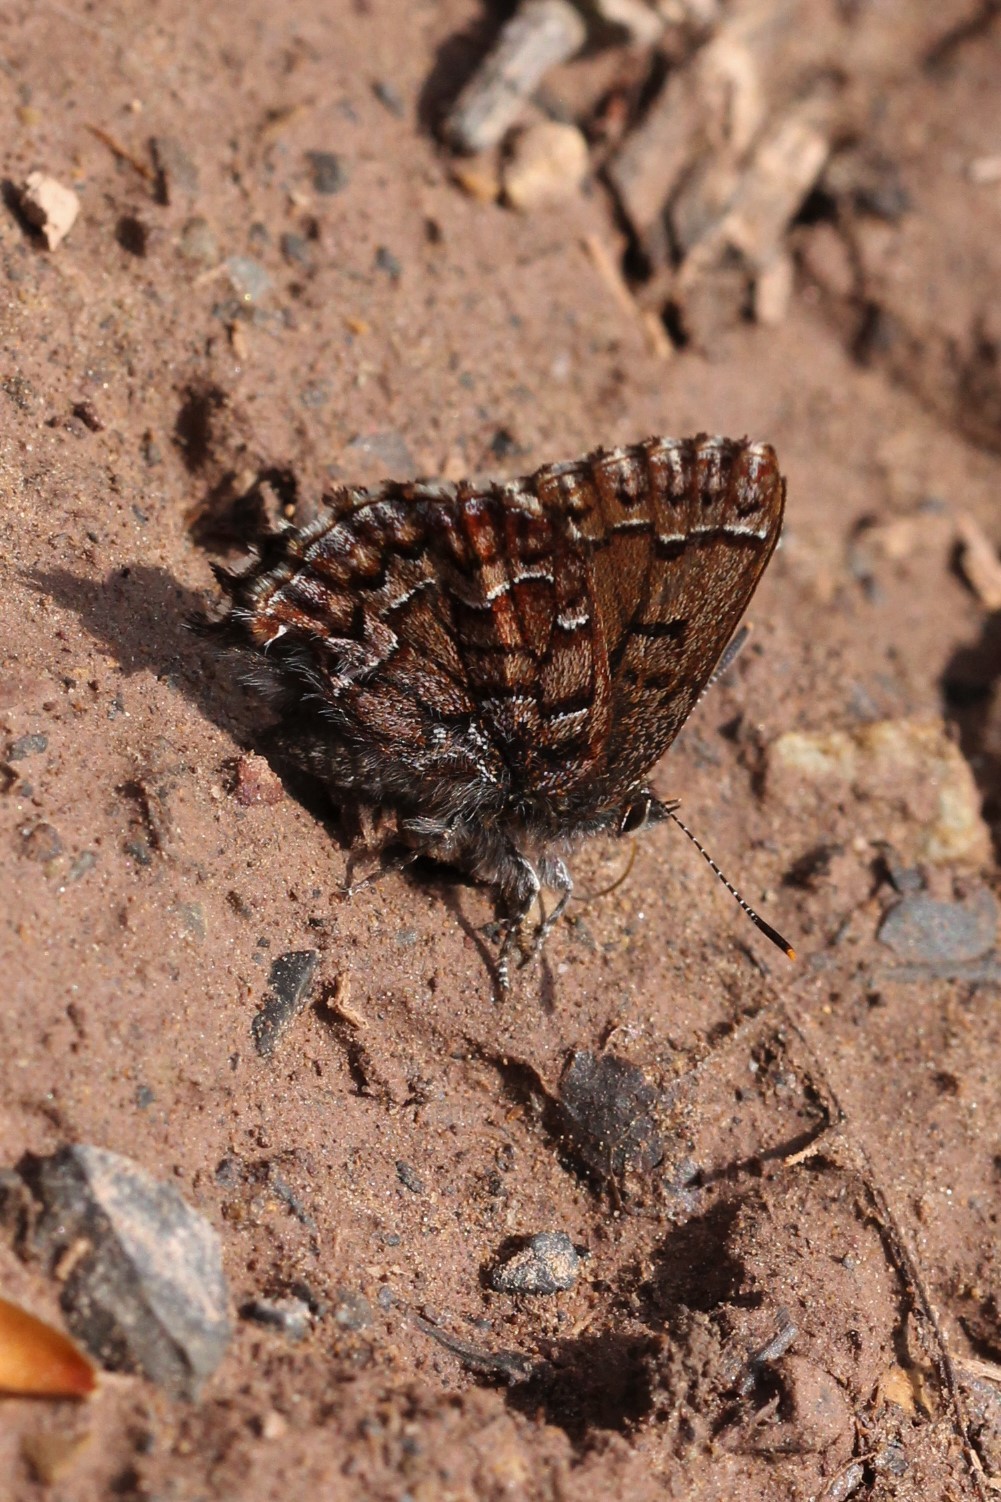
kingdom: Animalia
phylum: Arthropoda
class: Insecta
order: Lepidoptera
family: Lycaenidae
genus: Incisalia
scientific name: Incisalia niphon
